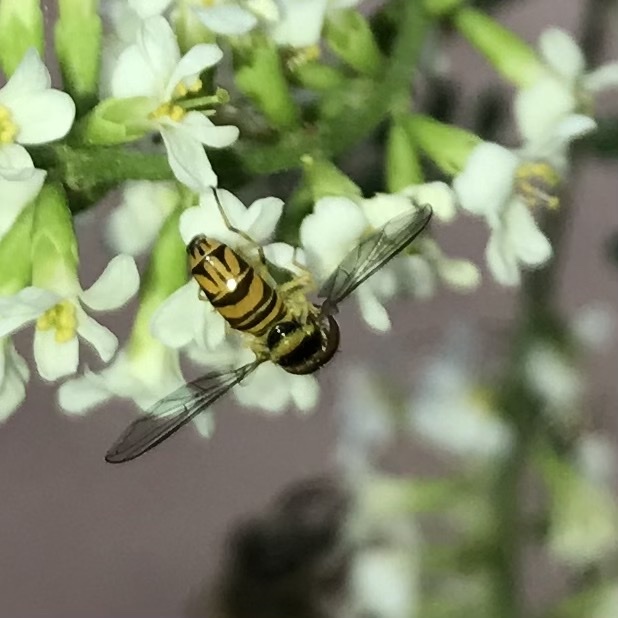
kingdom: Animalia
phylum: Arthropoda
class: Insecta
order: Diptera
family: Syrphidae
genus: Allograpta
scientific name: Allograpta obliqua
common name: Common oblique syrphid
